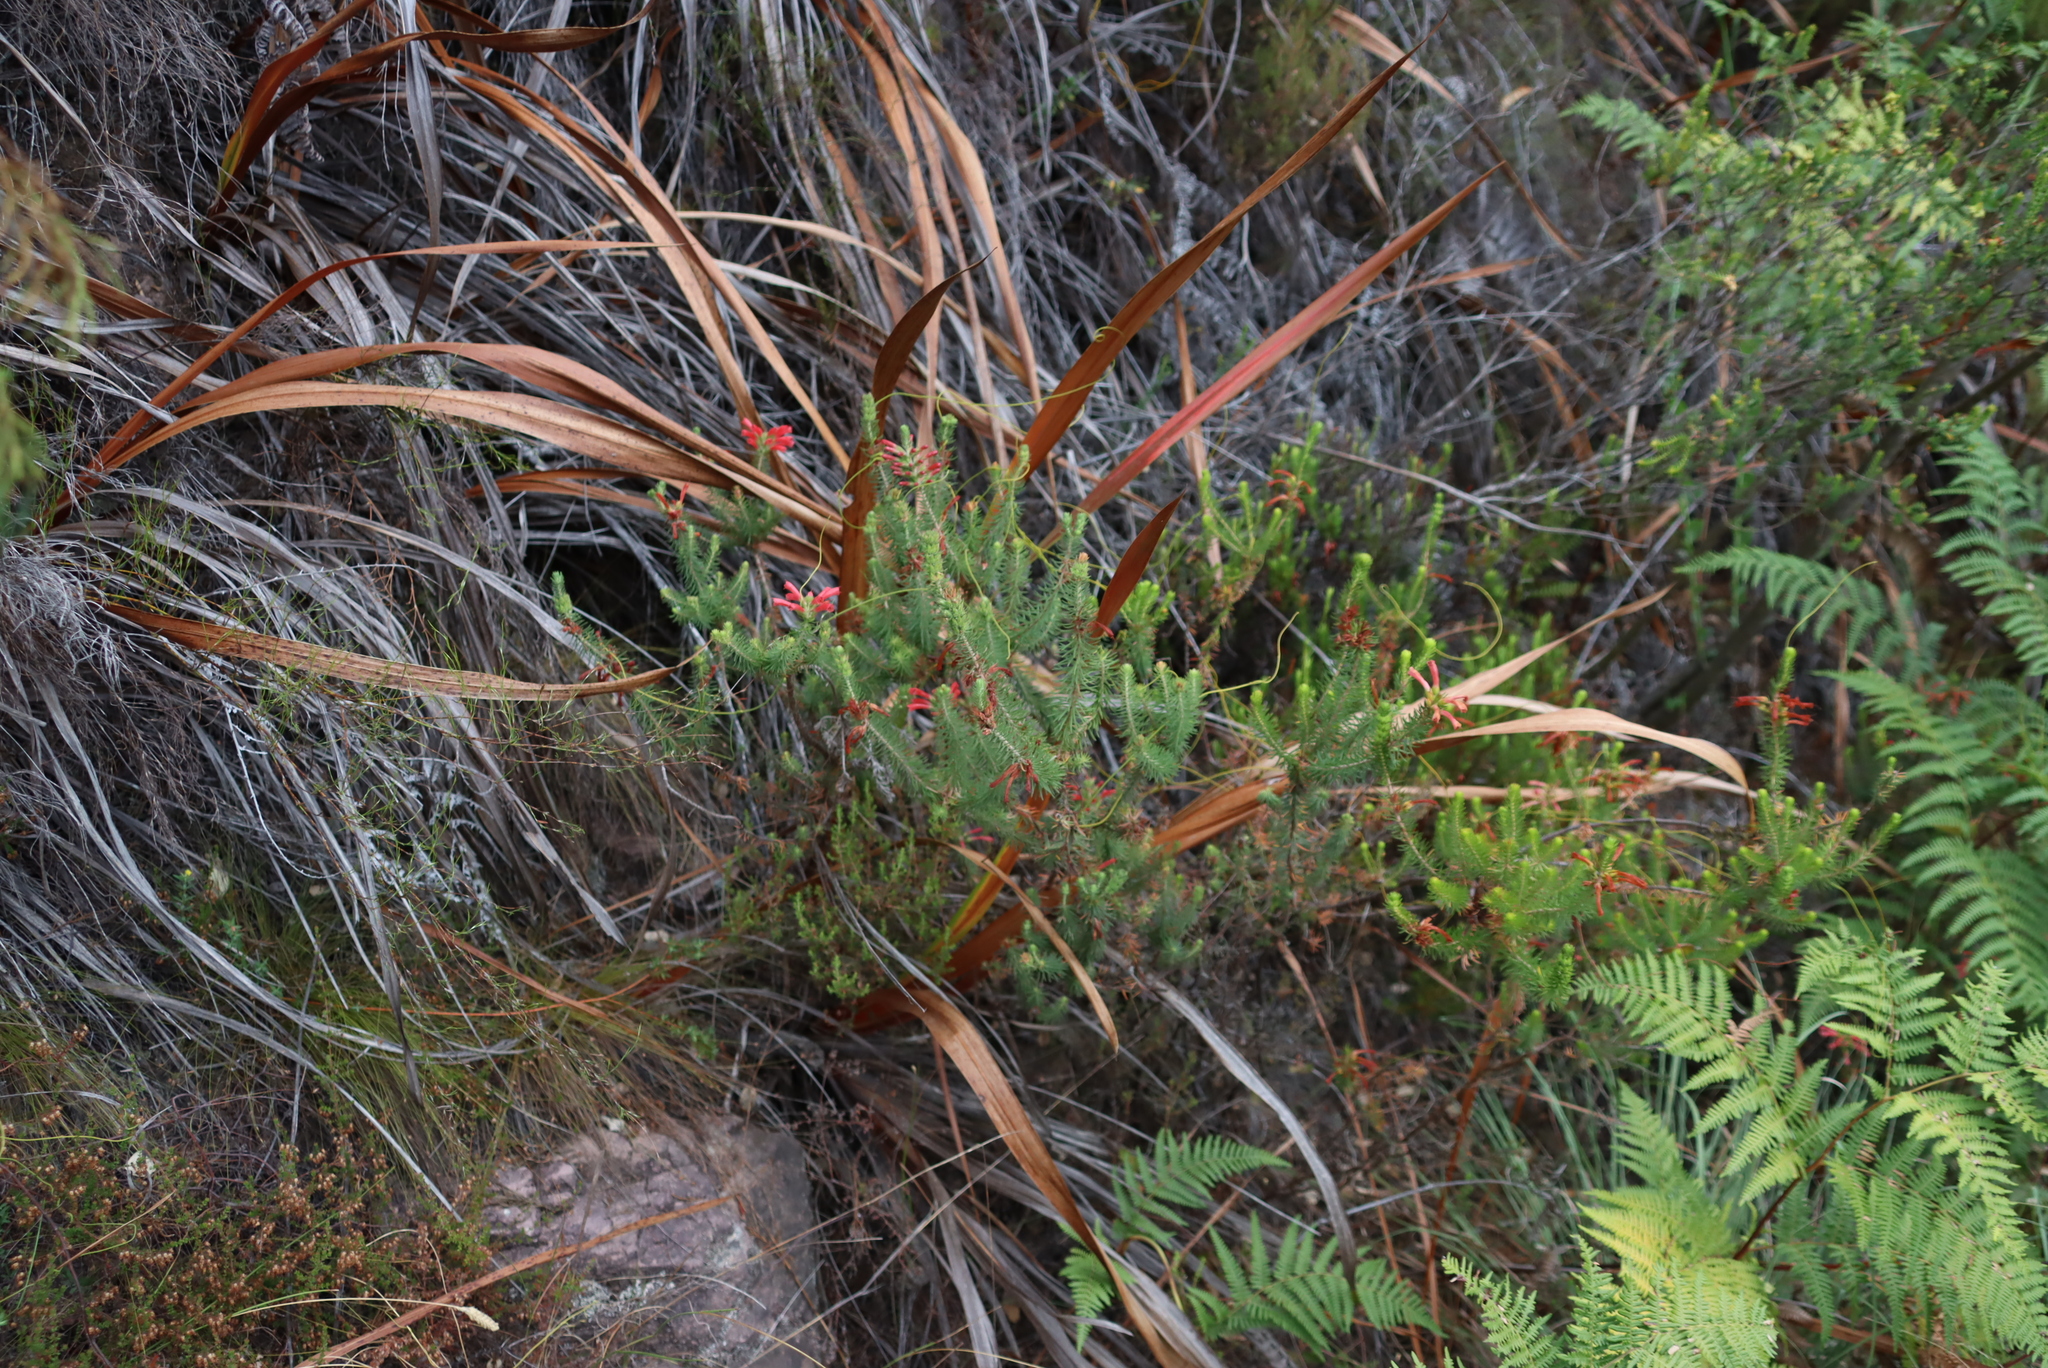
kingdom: Plantae
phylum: Tracheophyta
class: Magnoliopsida
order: Ericales
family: Ericaceae
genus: Erica
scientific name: Erica abietina
